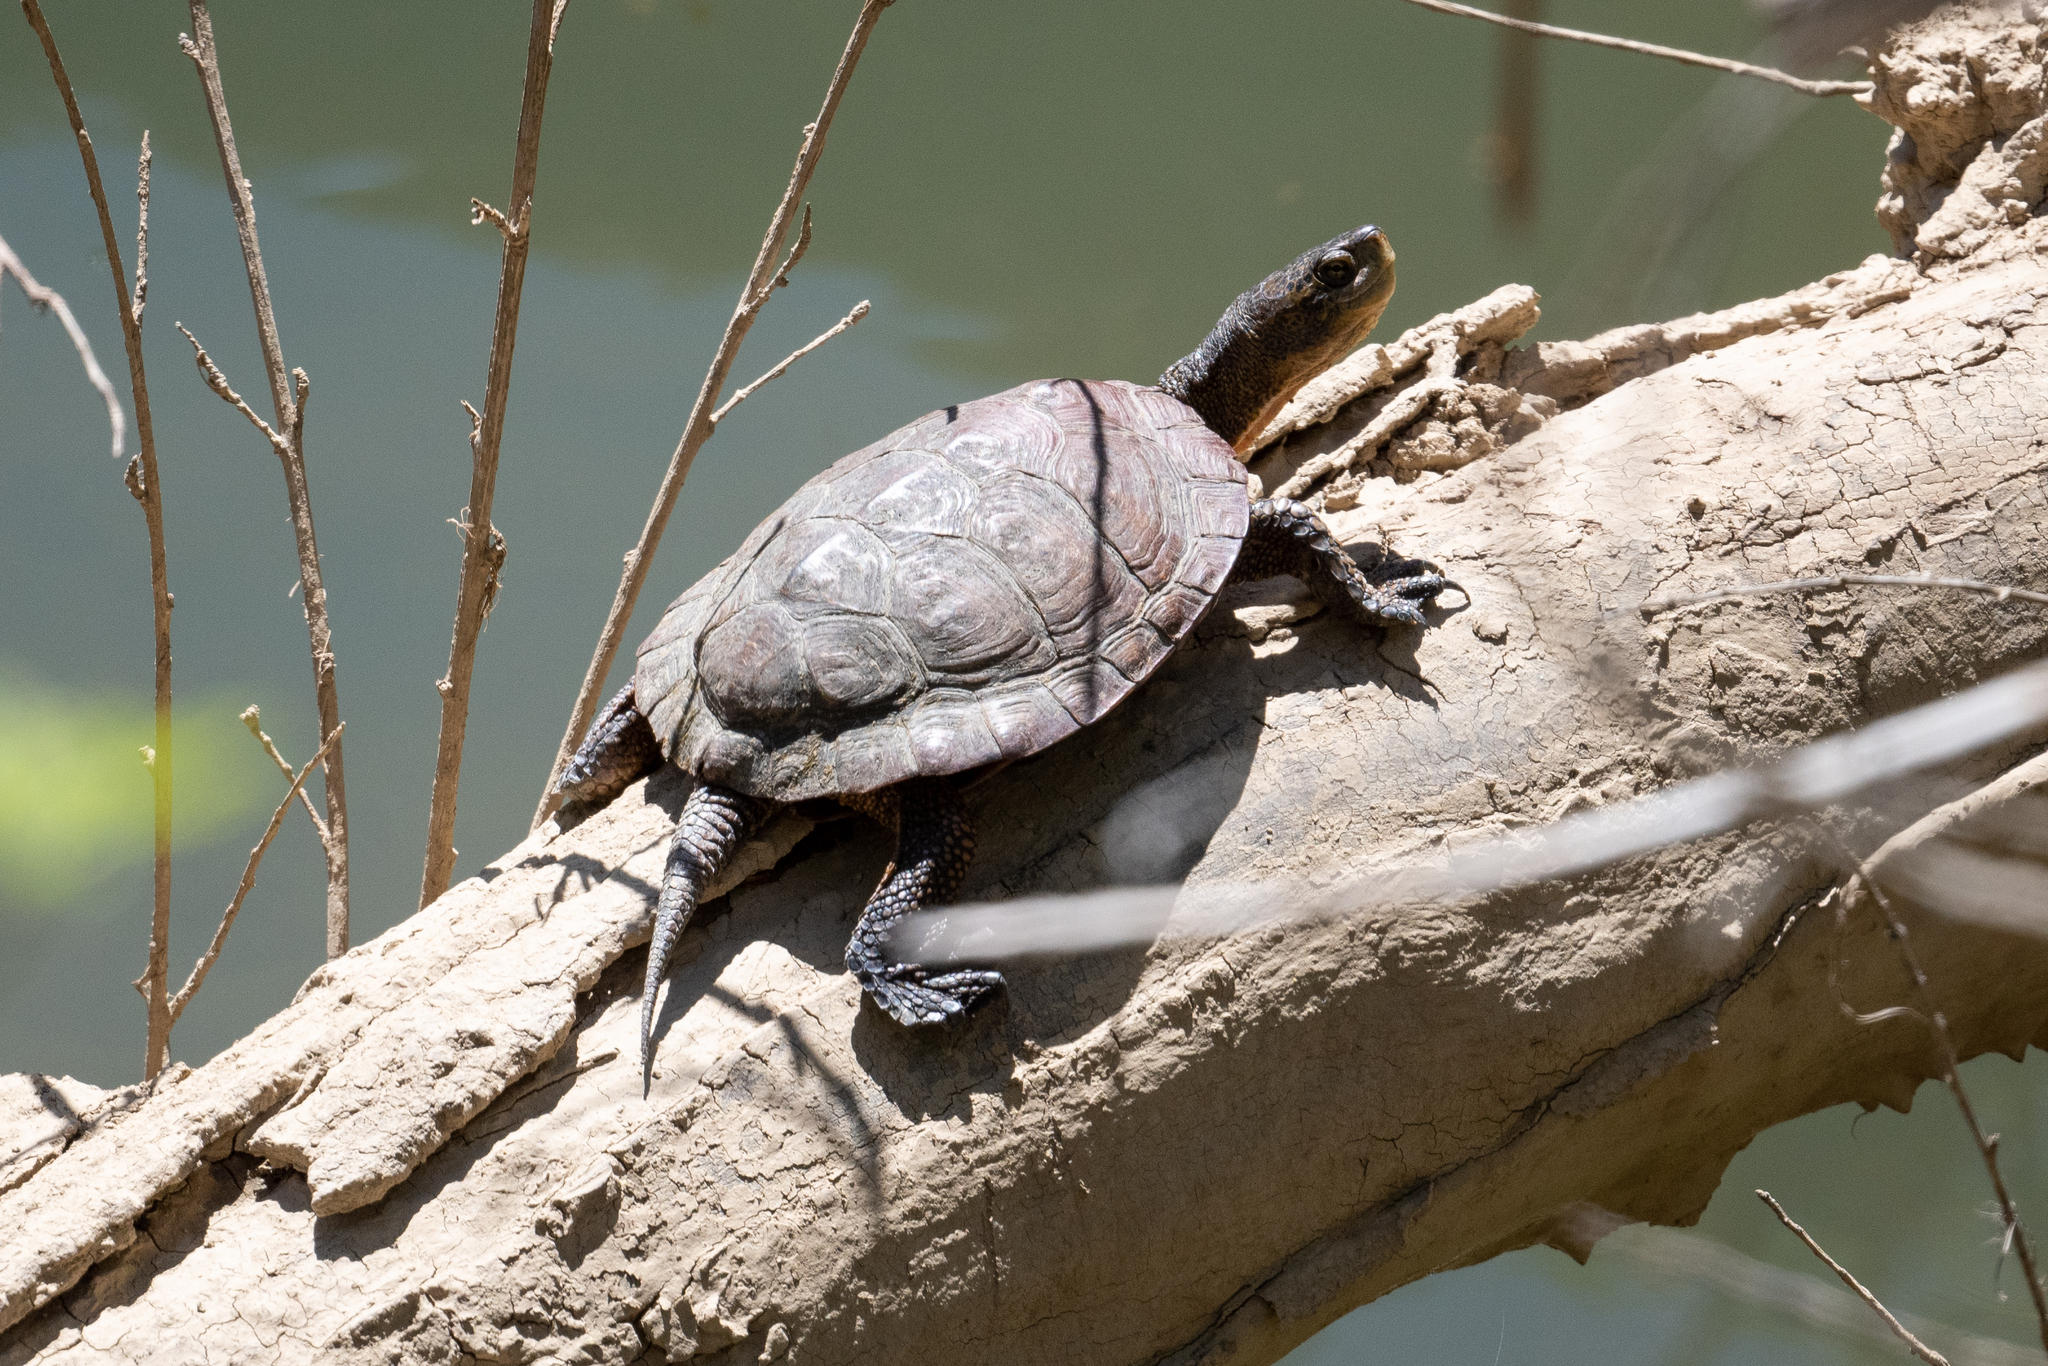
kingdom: Animalia
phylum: Chordata
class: Testudines
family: Emydidae
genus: Actinemys
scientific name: Actinemys marmorata
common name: Western pond turtle
